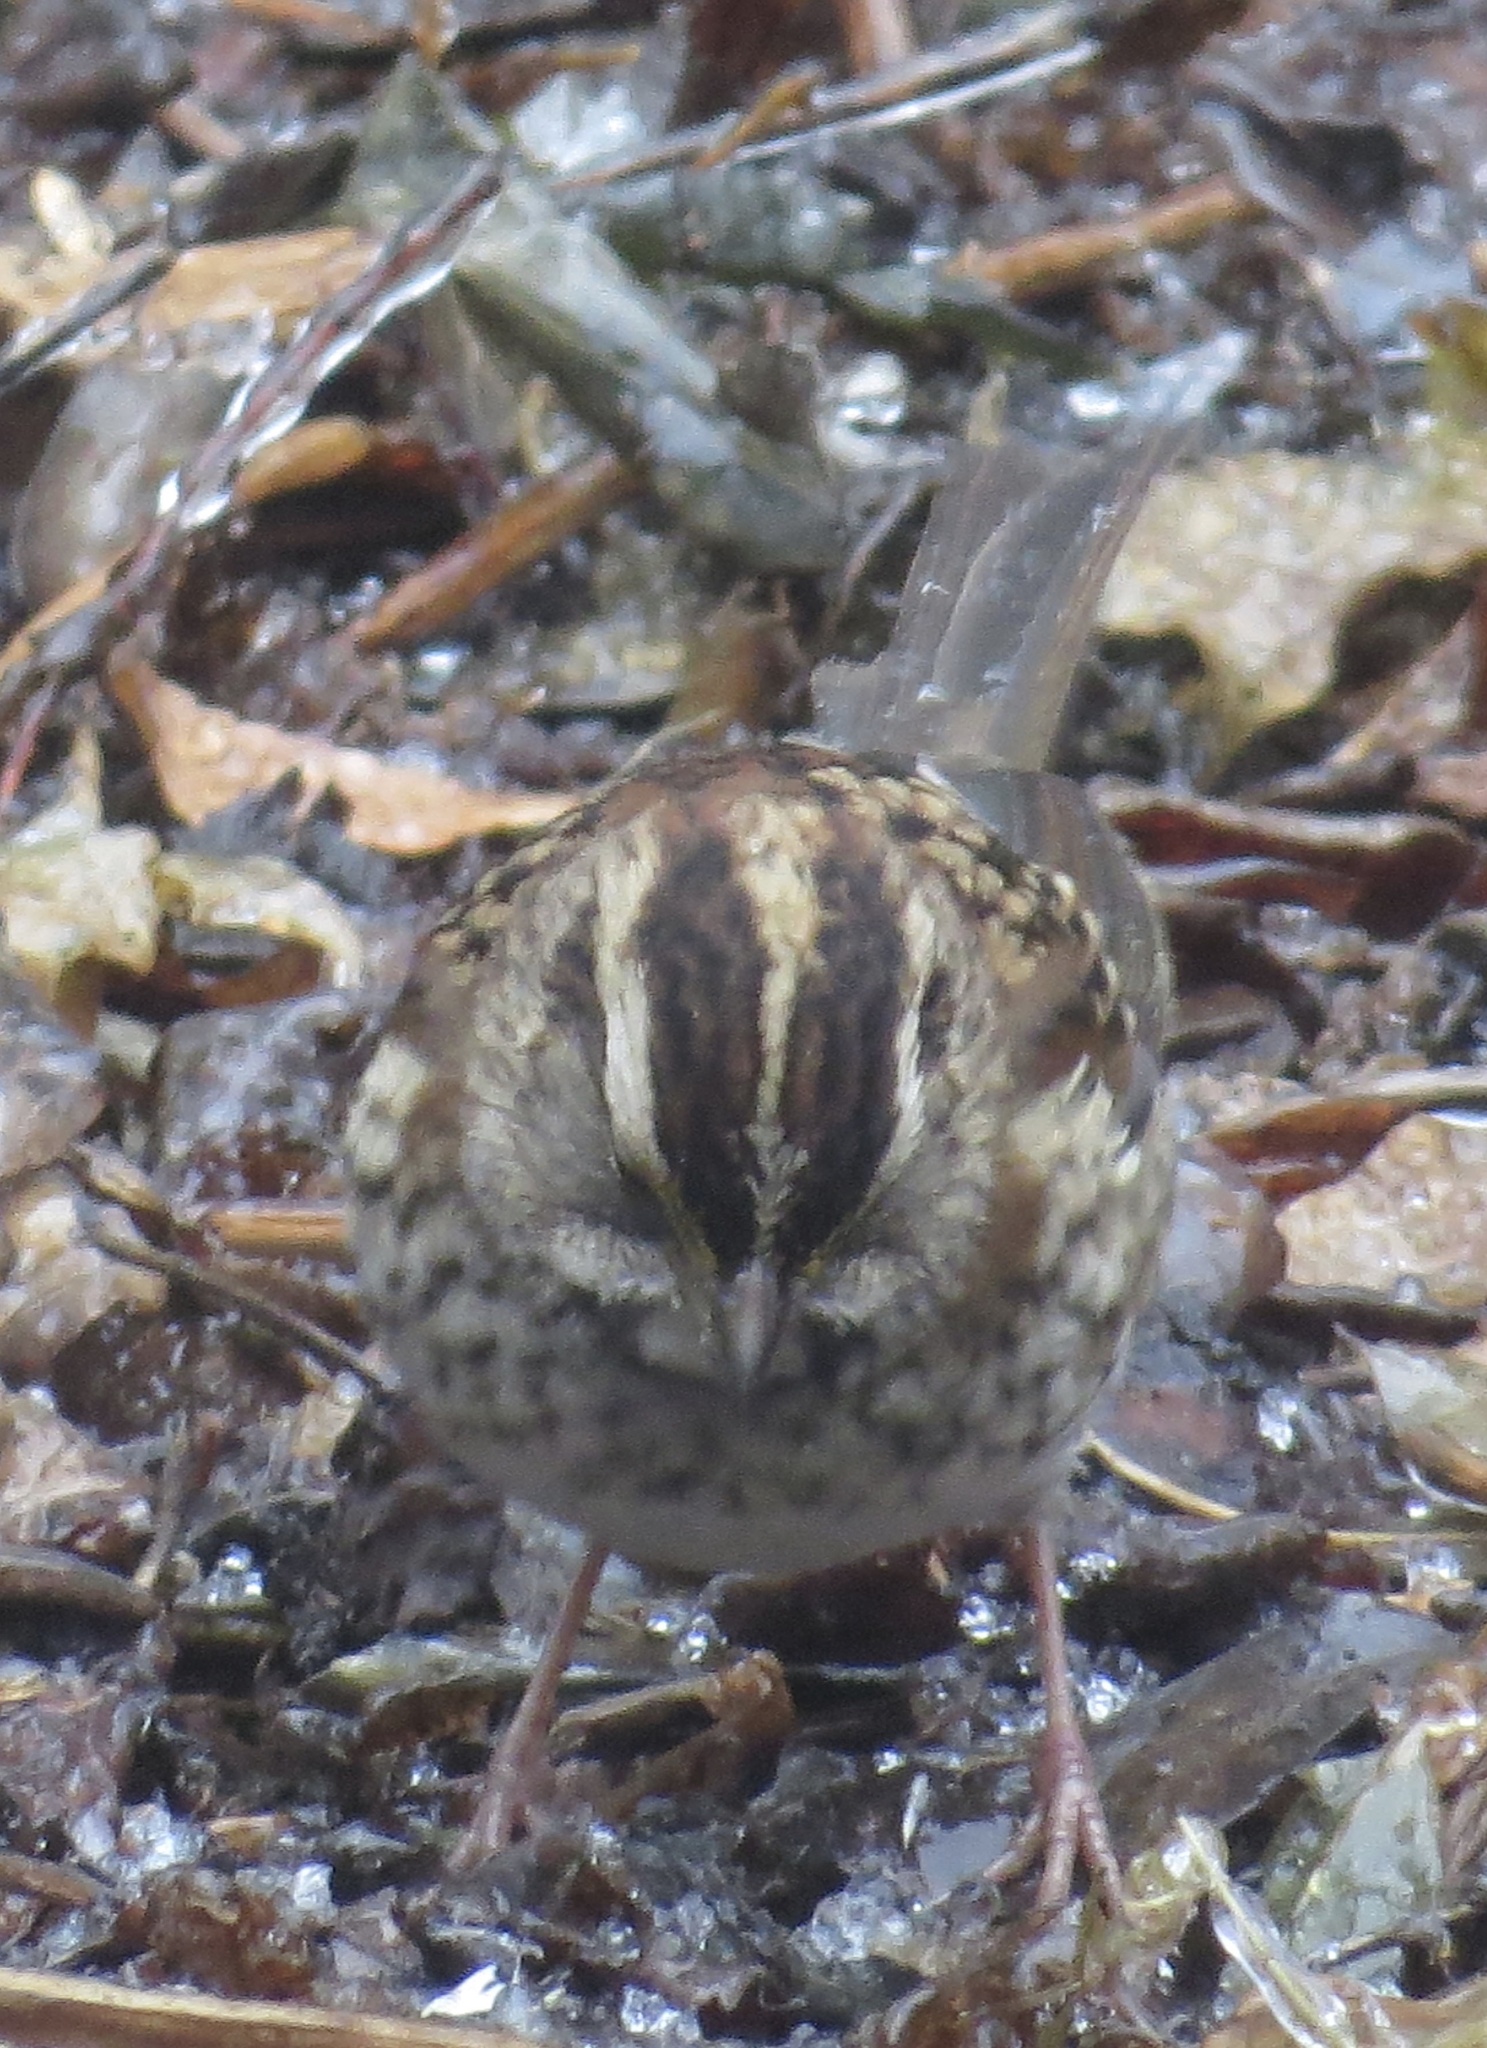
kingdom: Animalia
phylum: Chordata
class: Aves
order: Passeriformes
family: Passerellidae
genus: Zonotrichia
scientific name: Zonotrichia albicollis
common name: White-throated sparrow
